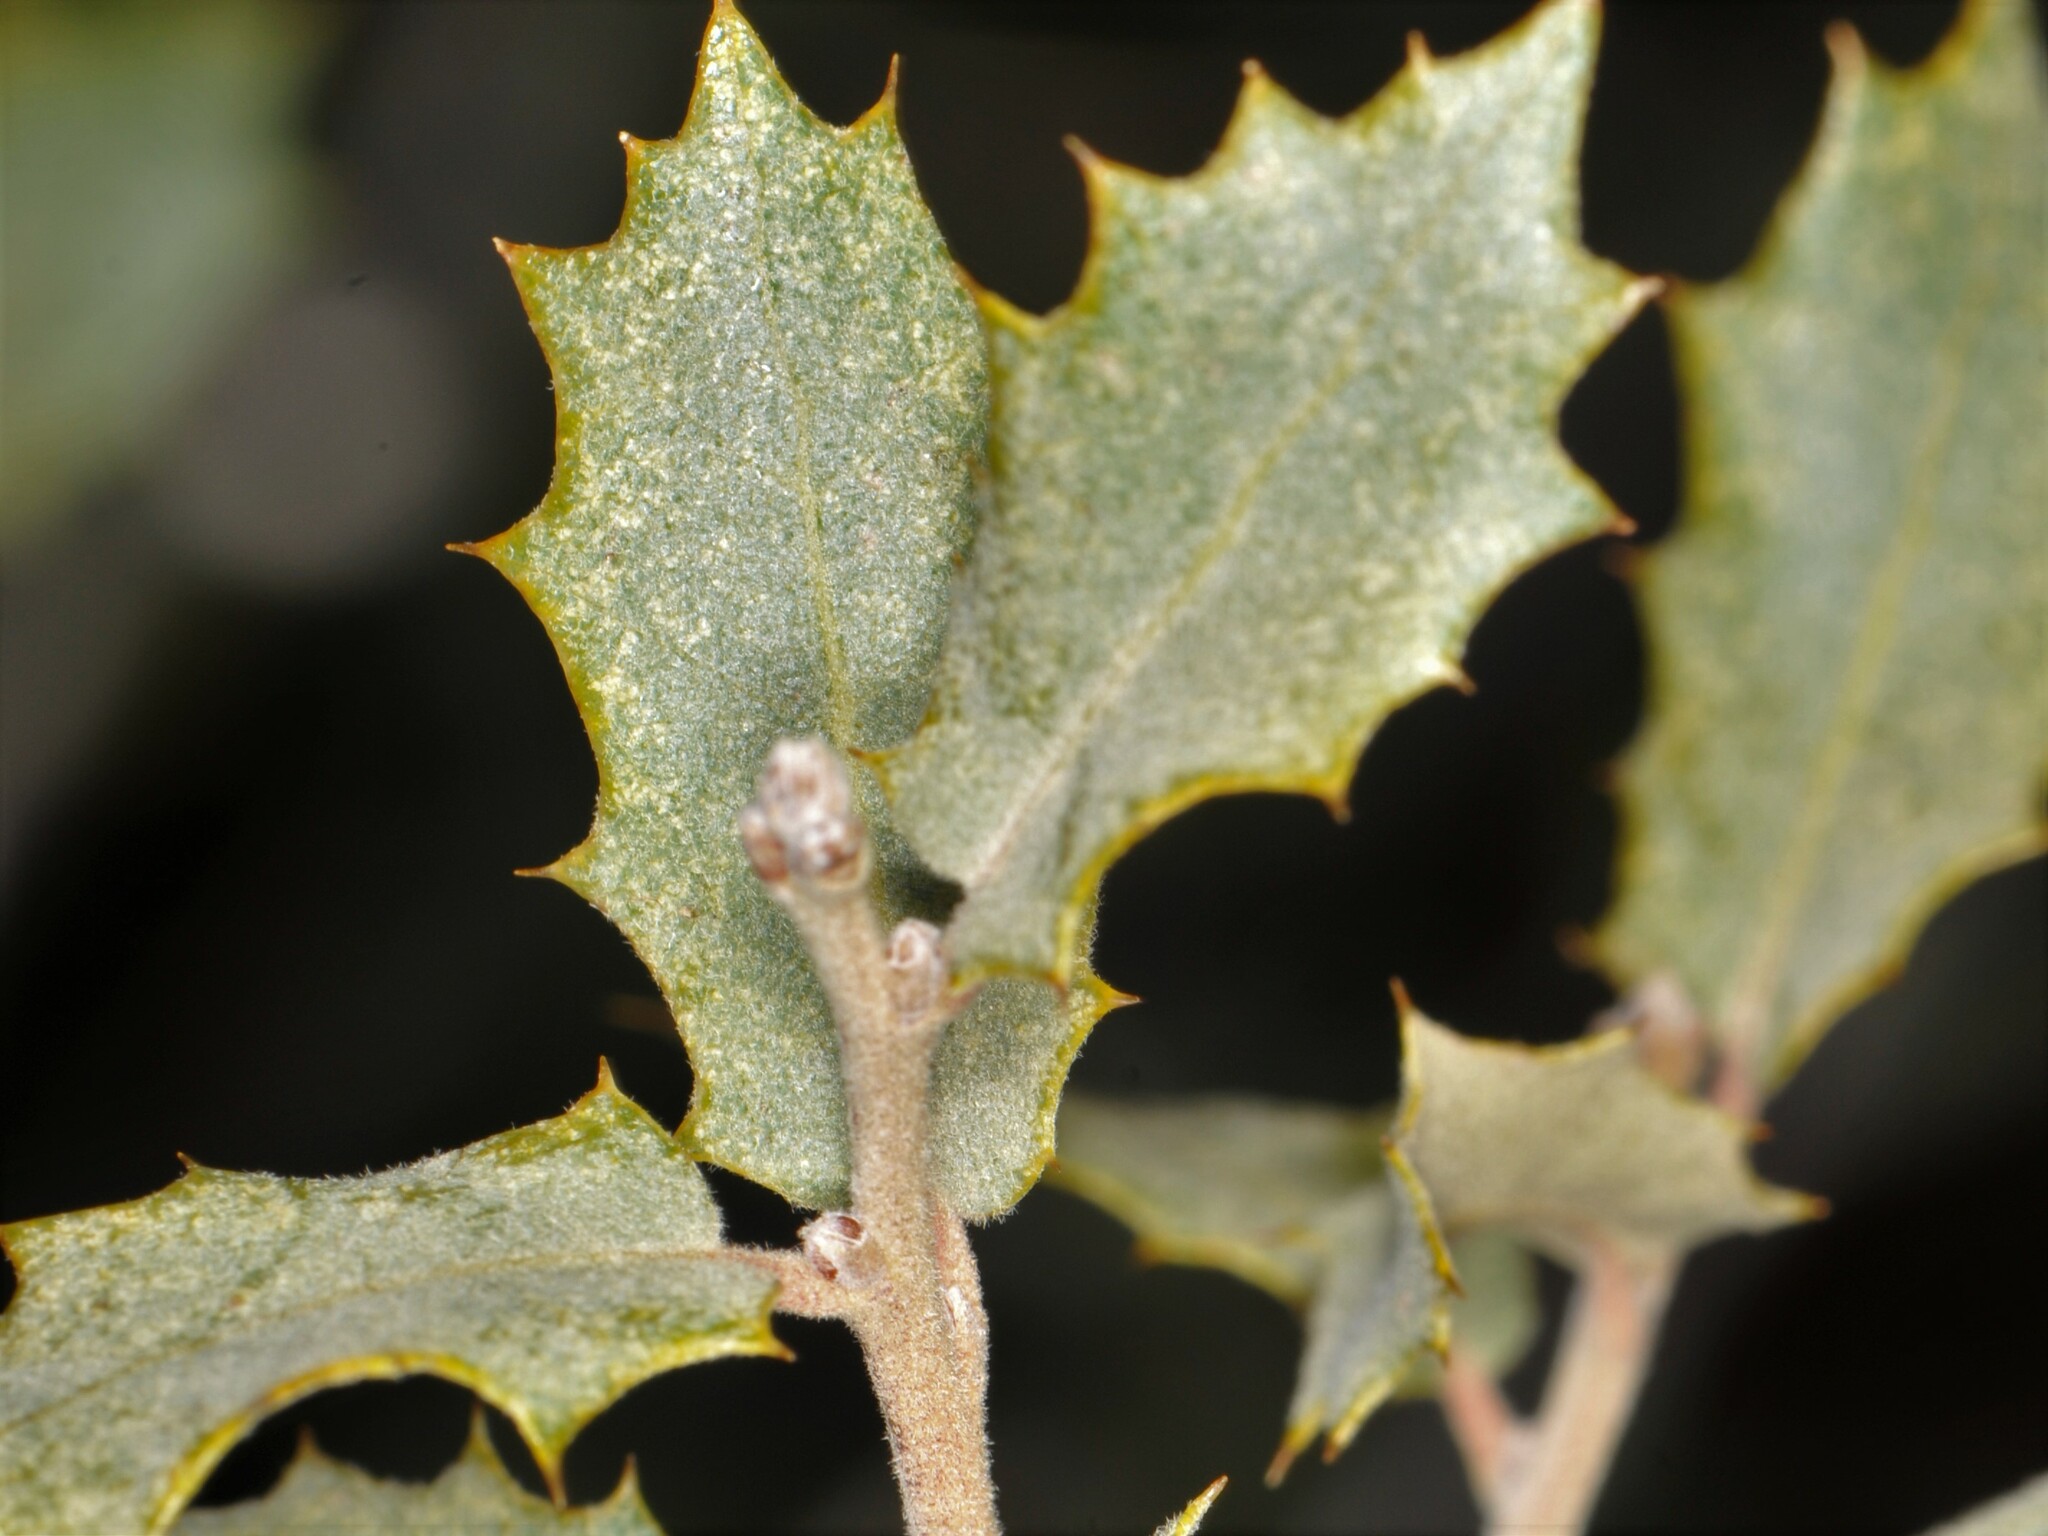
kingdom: Plantae
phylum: Tracheophyta
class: Magnoliopsida
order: Fagales
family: Fagaceae
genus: Quercus
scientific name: Quercus turbinella
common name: Sonoran scrub oak
